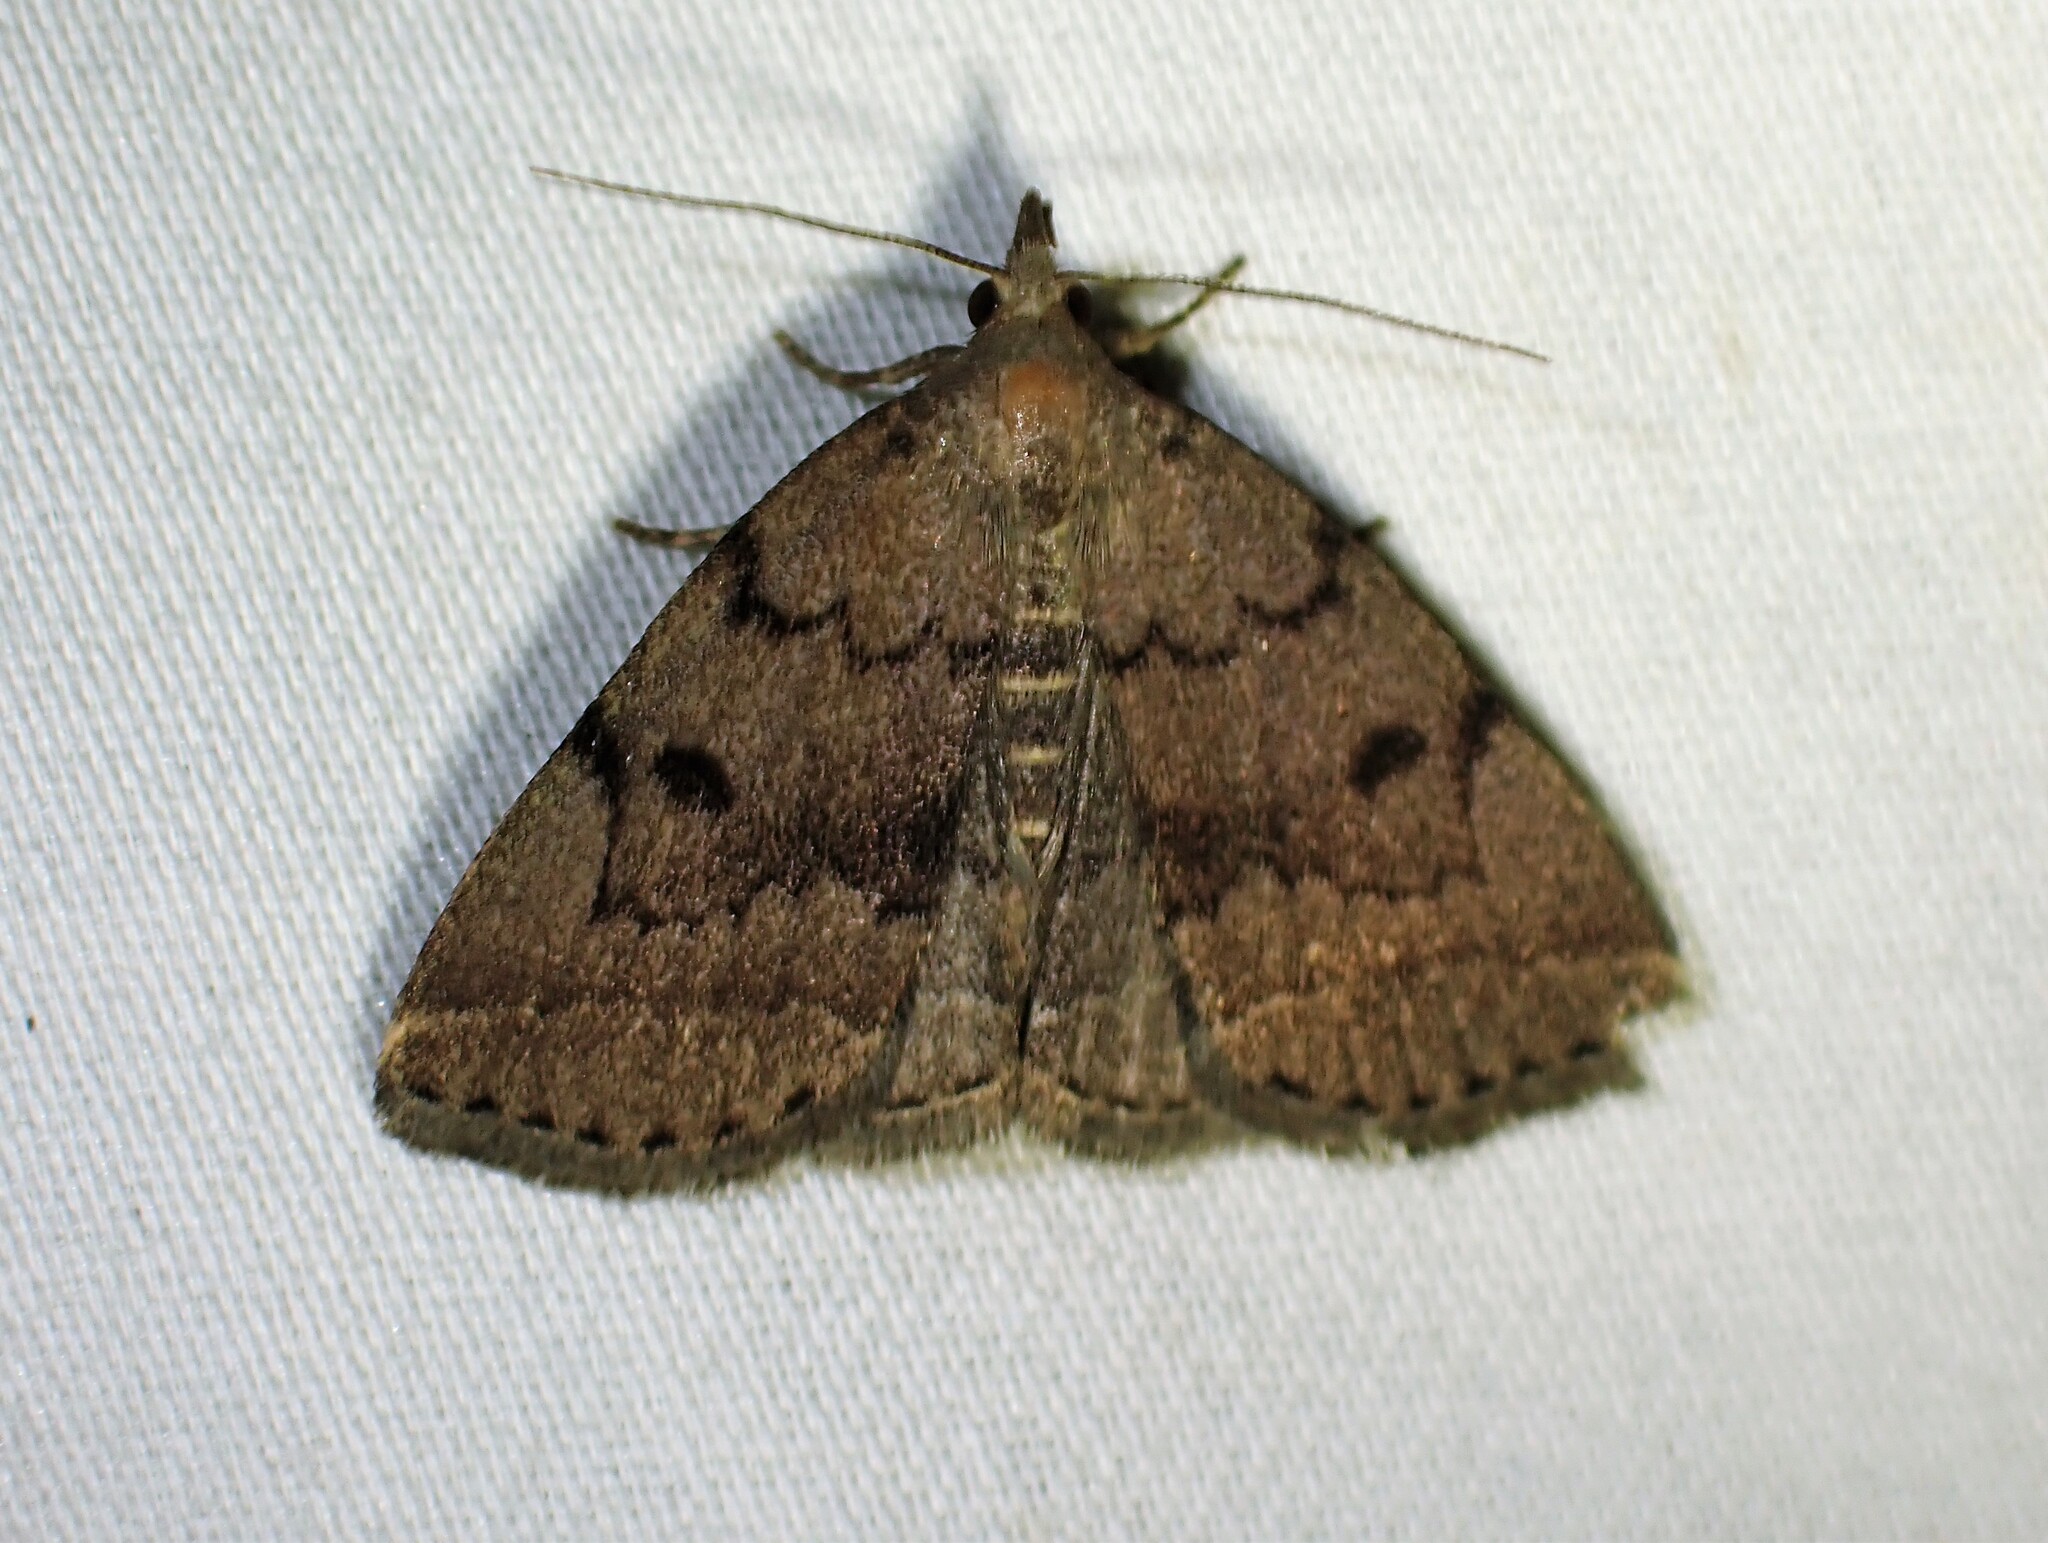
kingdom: Animalia
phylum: Arthropoda
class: Insecta
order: Lepidoptera
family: Erebidae
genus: Zanclognatha
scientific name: Zanclognatha dentata
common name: Toothed fan-foot
